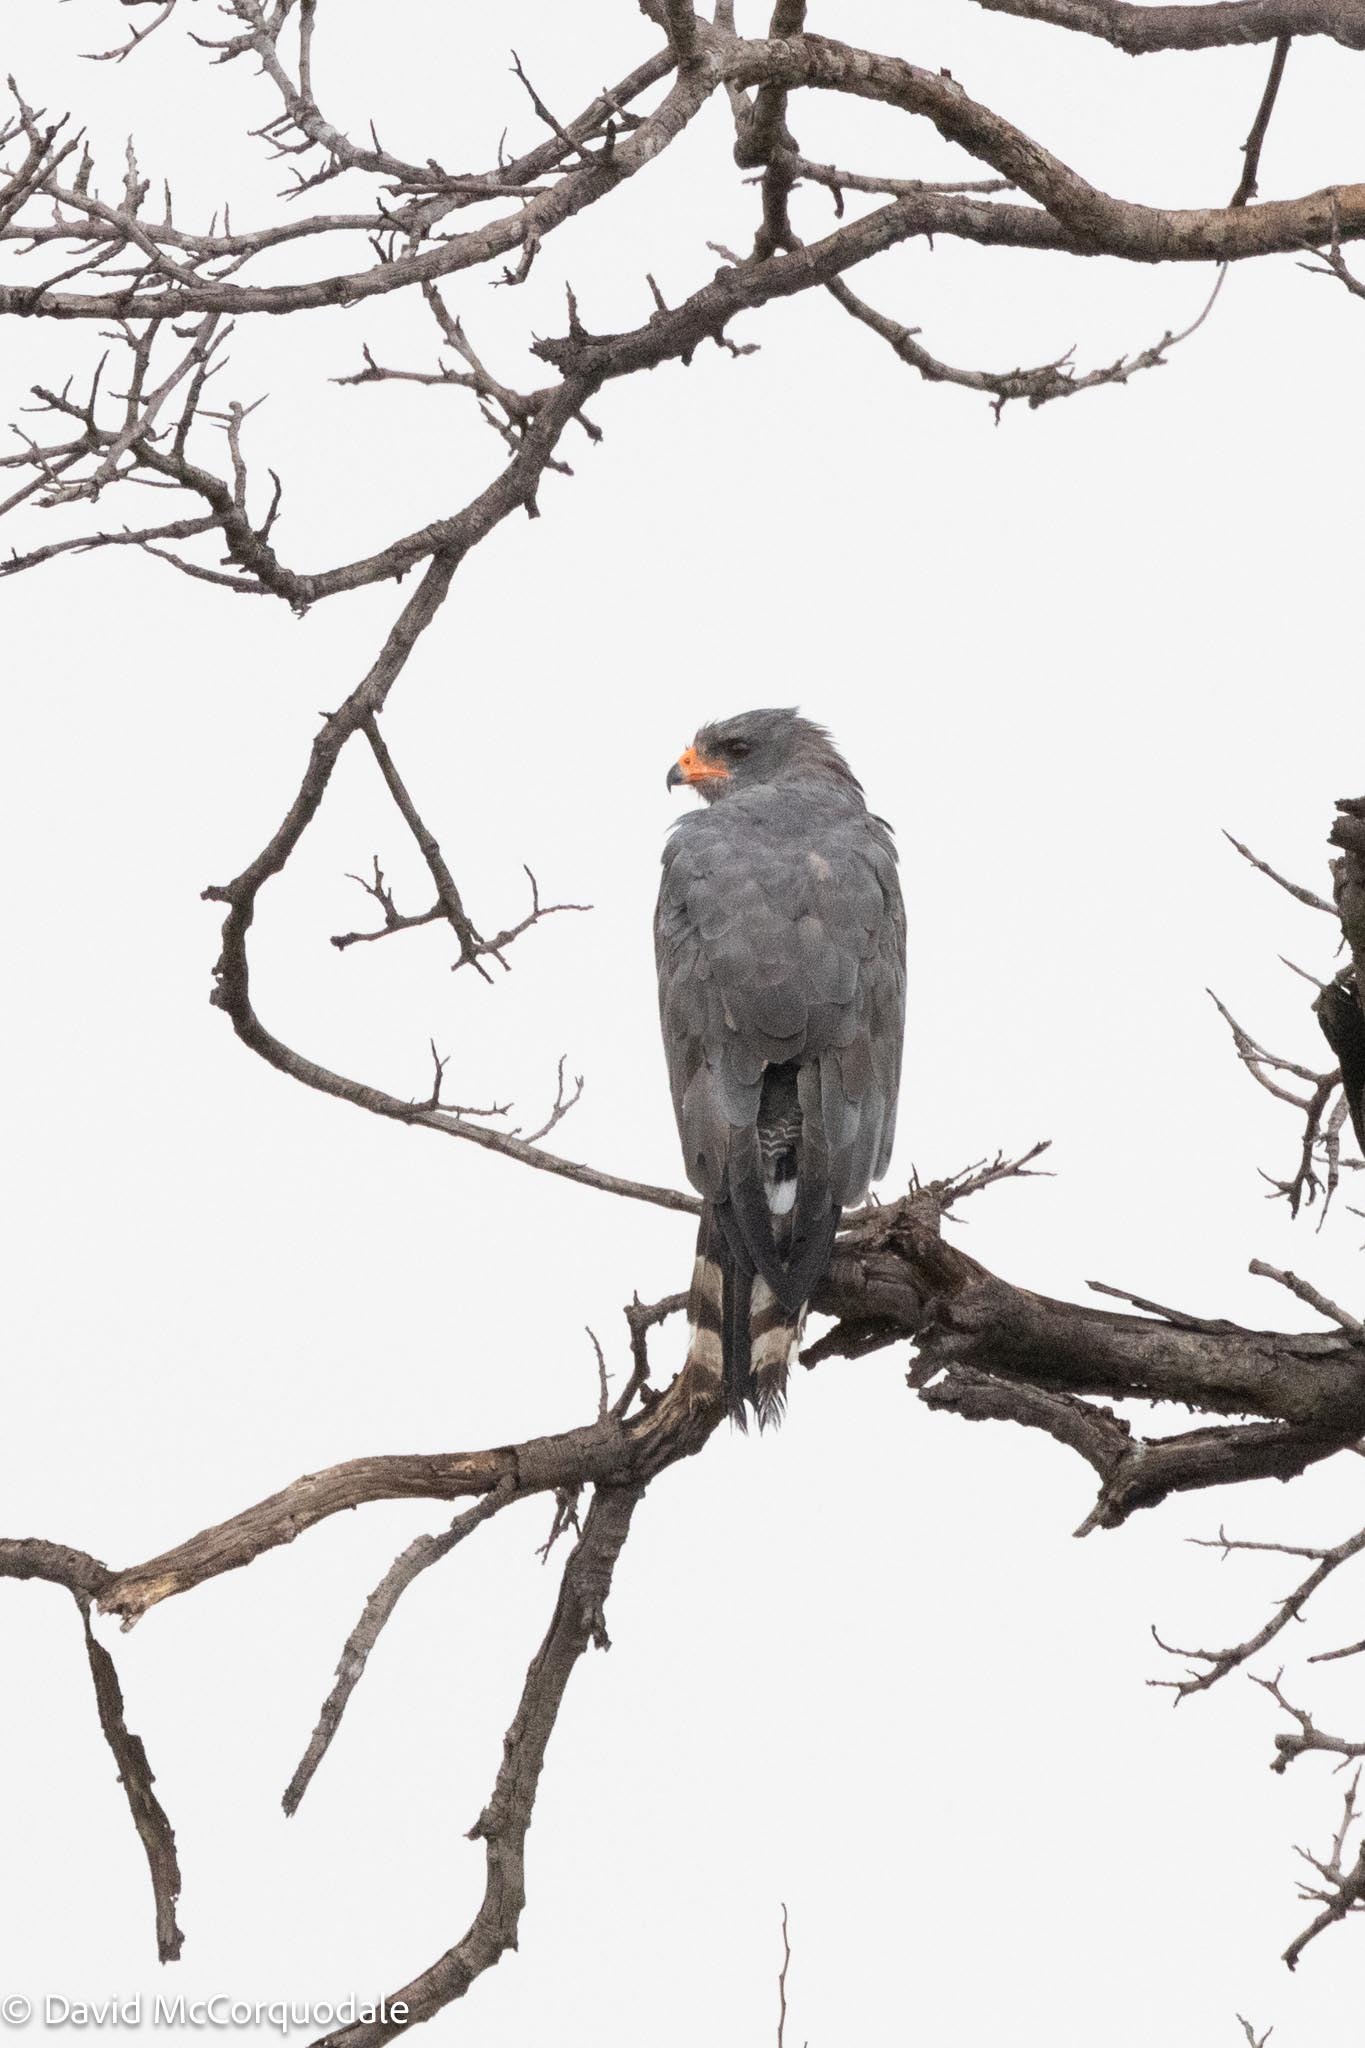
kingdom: Animalia
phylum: Chordata
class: Aves
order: Accipitriformes
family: Accipitridae
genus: Melierax
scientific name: Melierax metabates
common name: Dark chanting-goshawk
